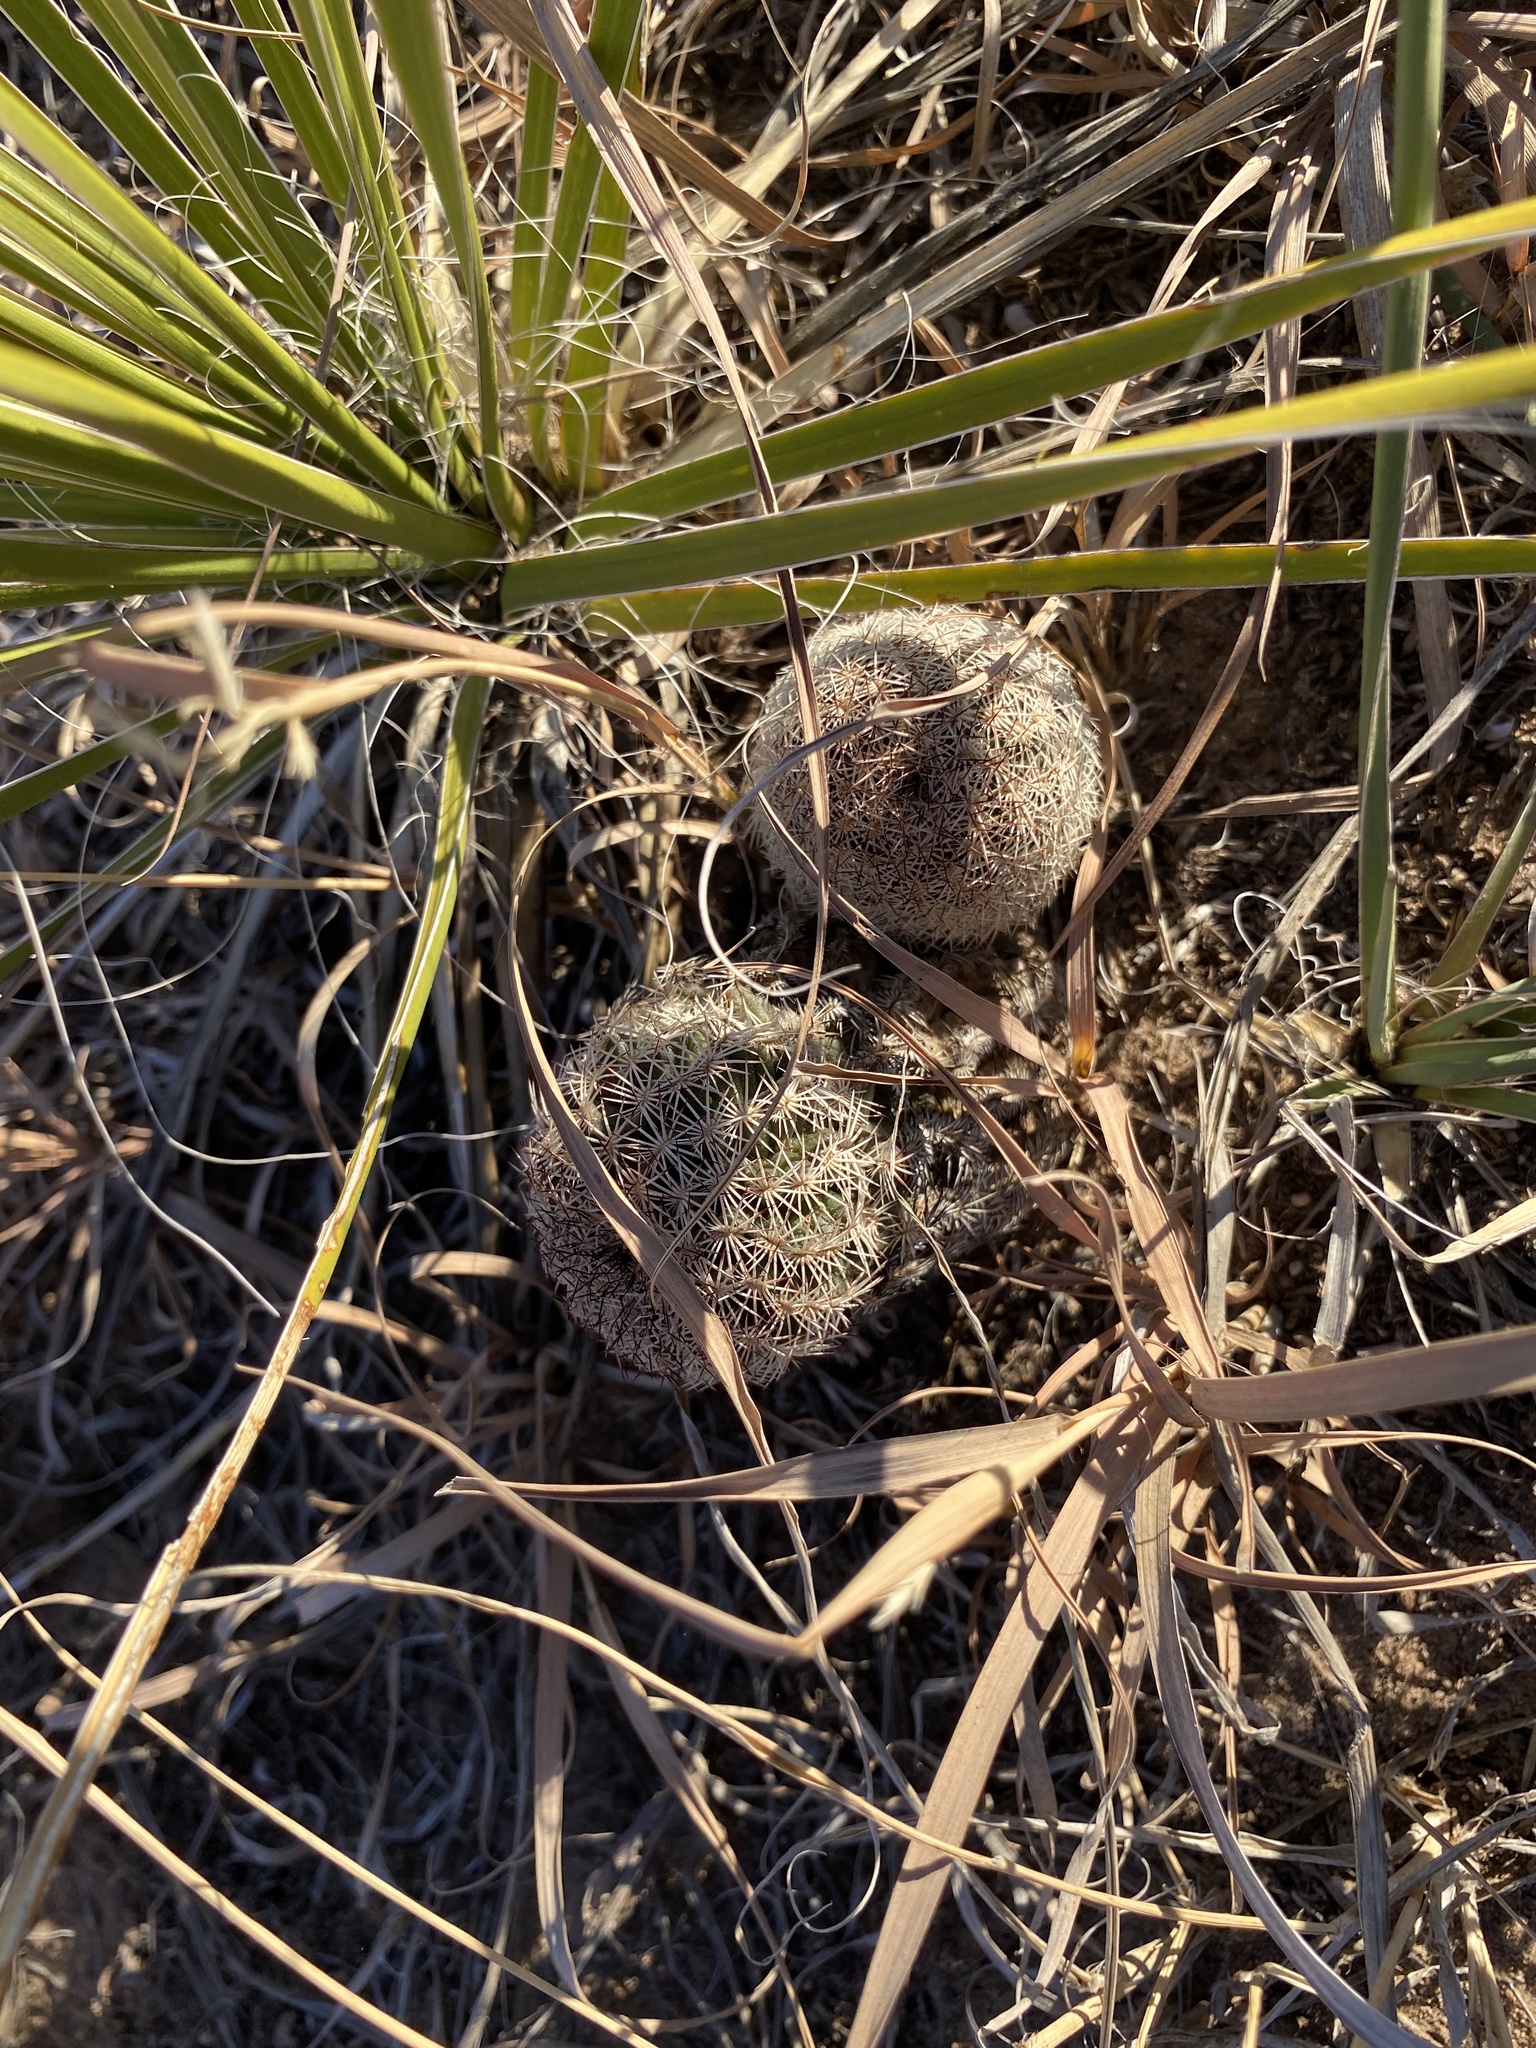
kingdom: Plantae
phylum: Tracheophyta
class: Magnoliopsida
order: Caryophyllales
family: Cactaceae
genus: Echinocereus
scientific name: Echinocereus reichenbachii
